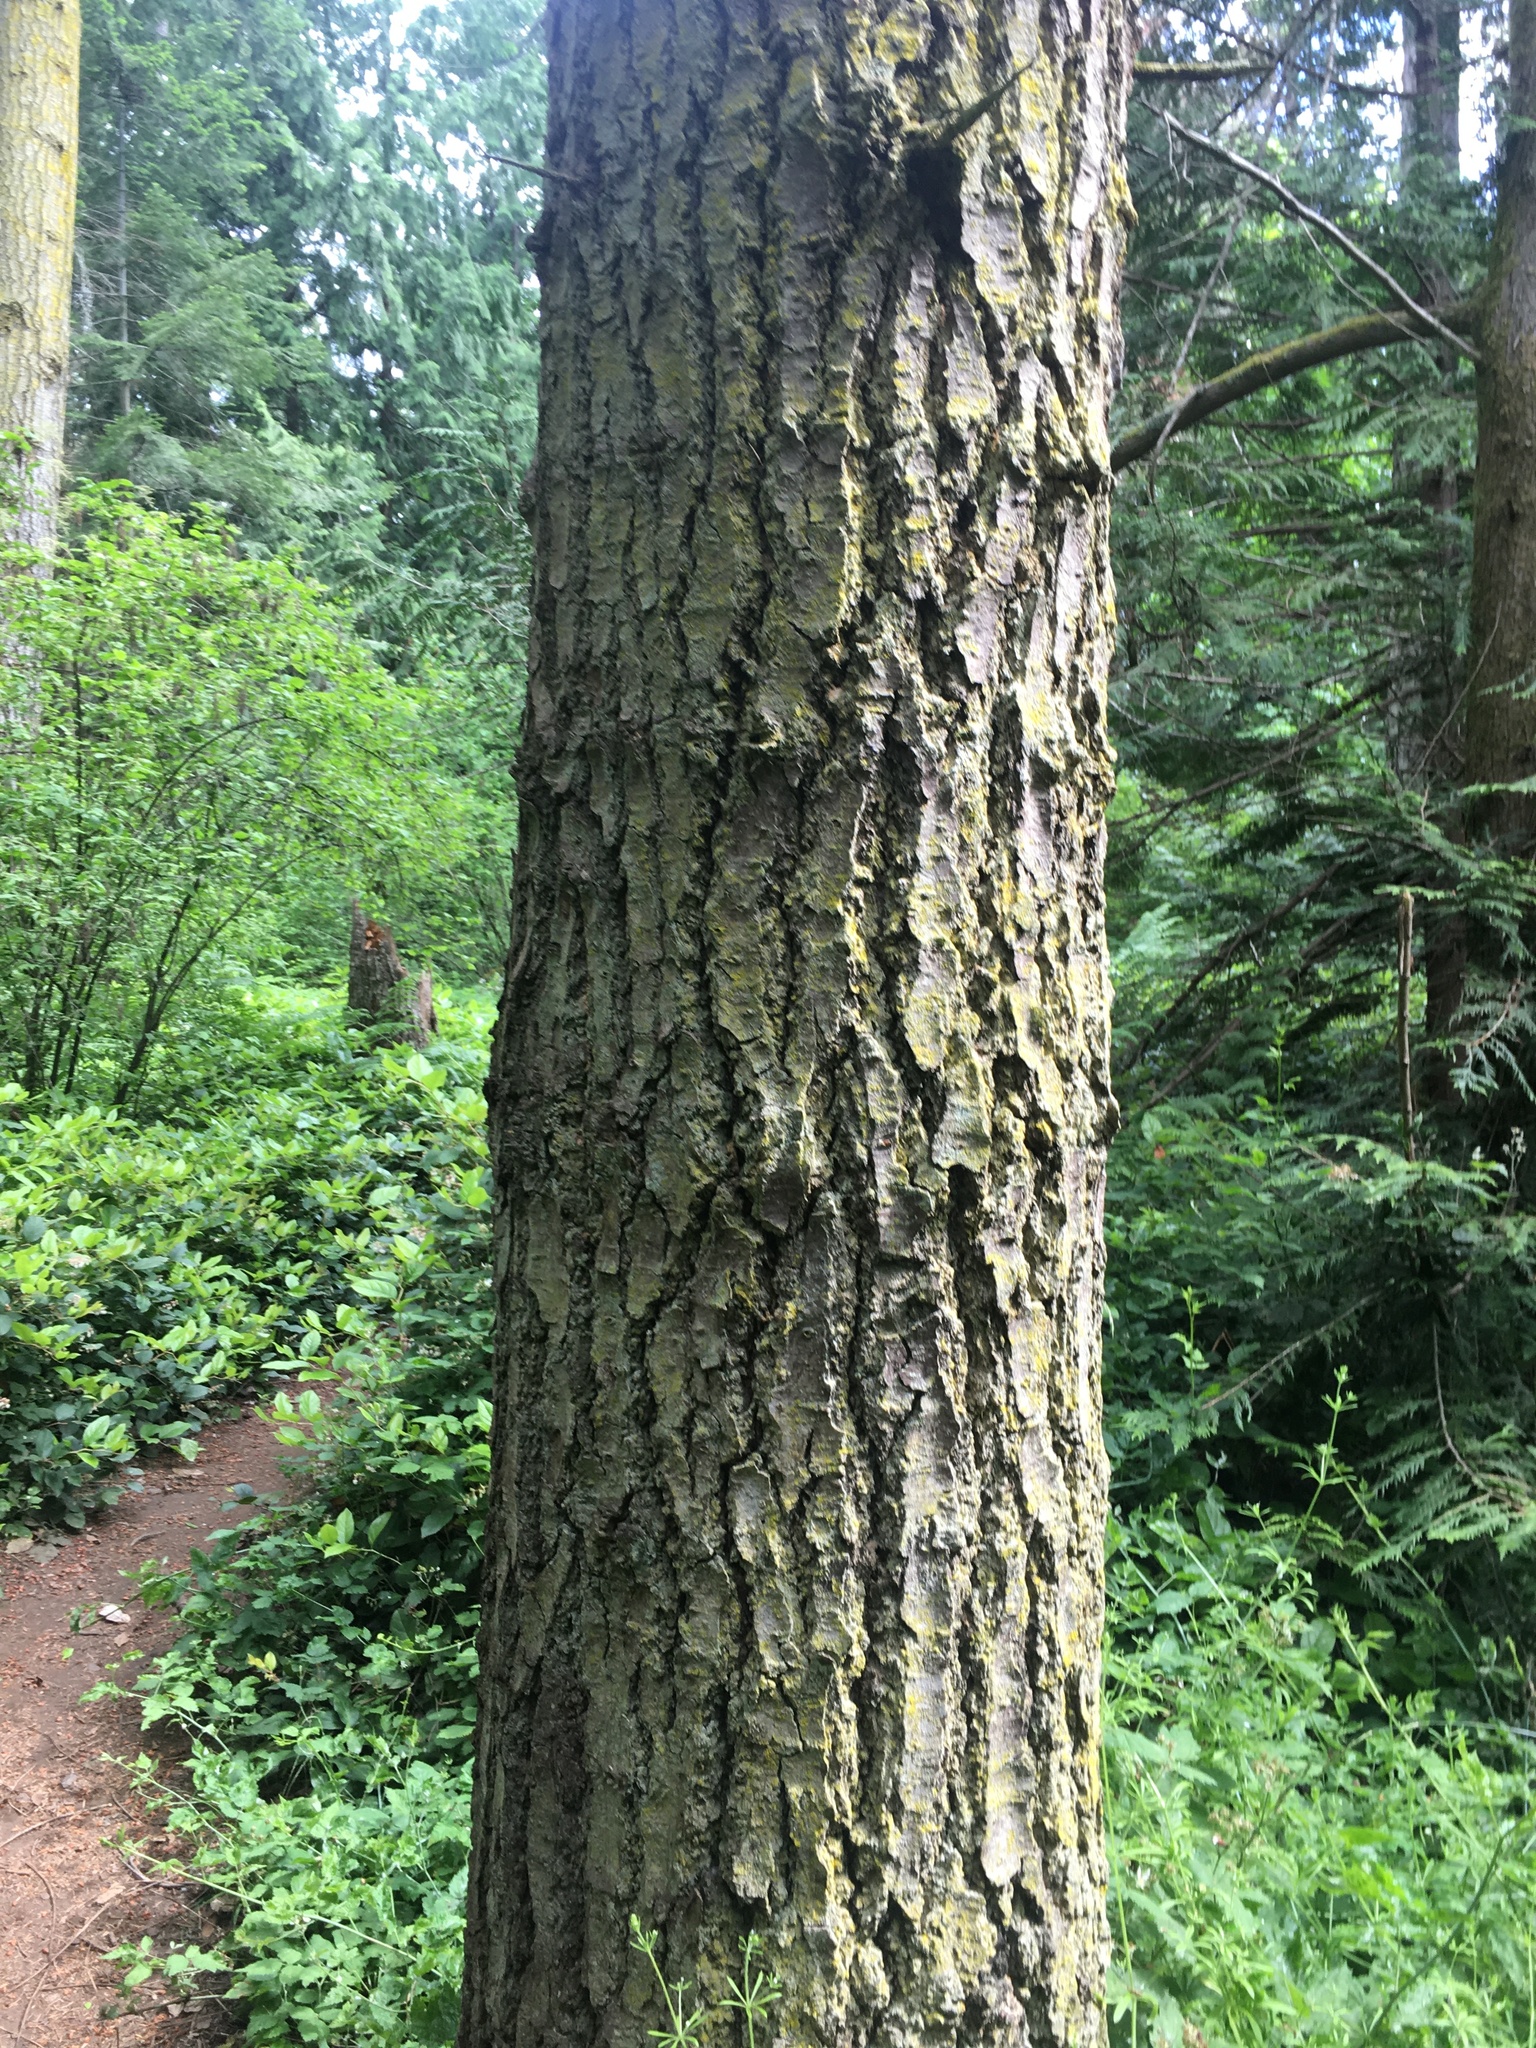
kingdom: Plantae
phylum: Tracheophyta
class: Pinopsida
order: Pinales
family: Pinaceae
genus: Pseudotsuga
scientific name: Pseudotsuga menziesii
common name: Douglas fir
